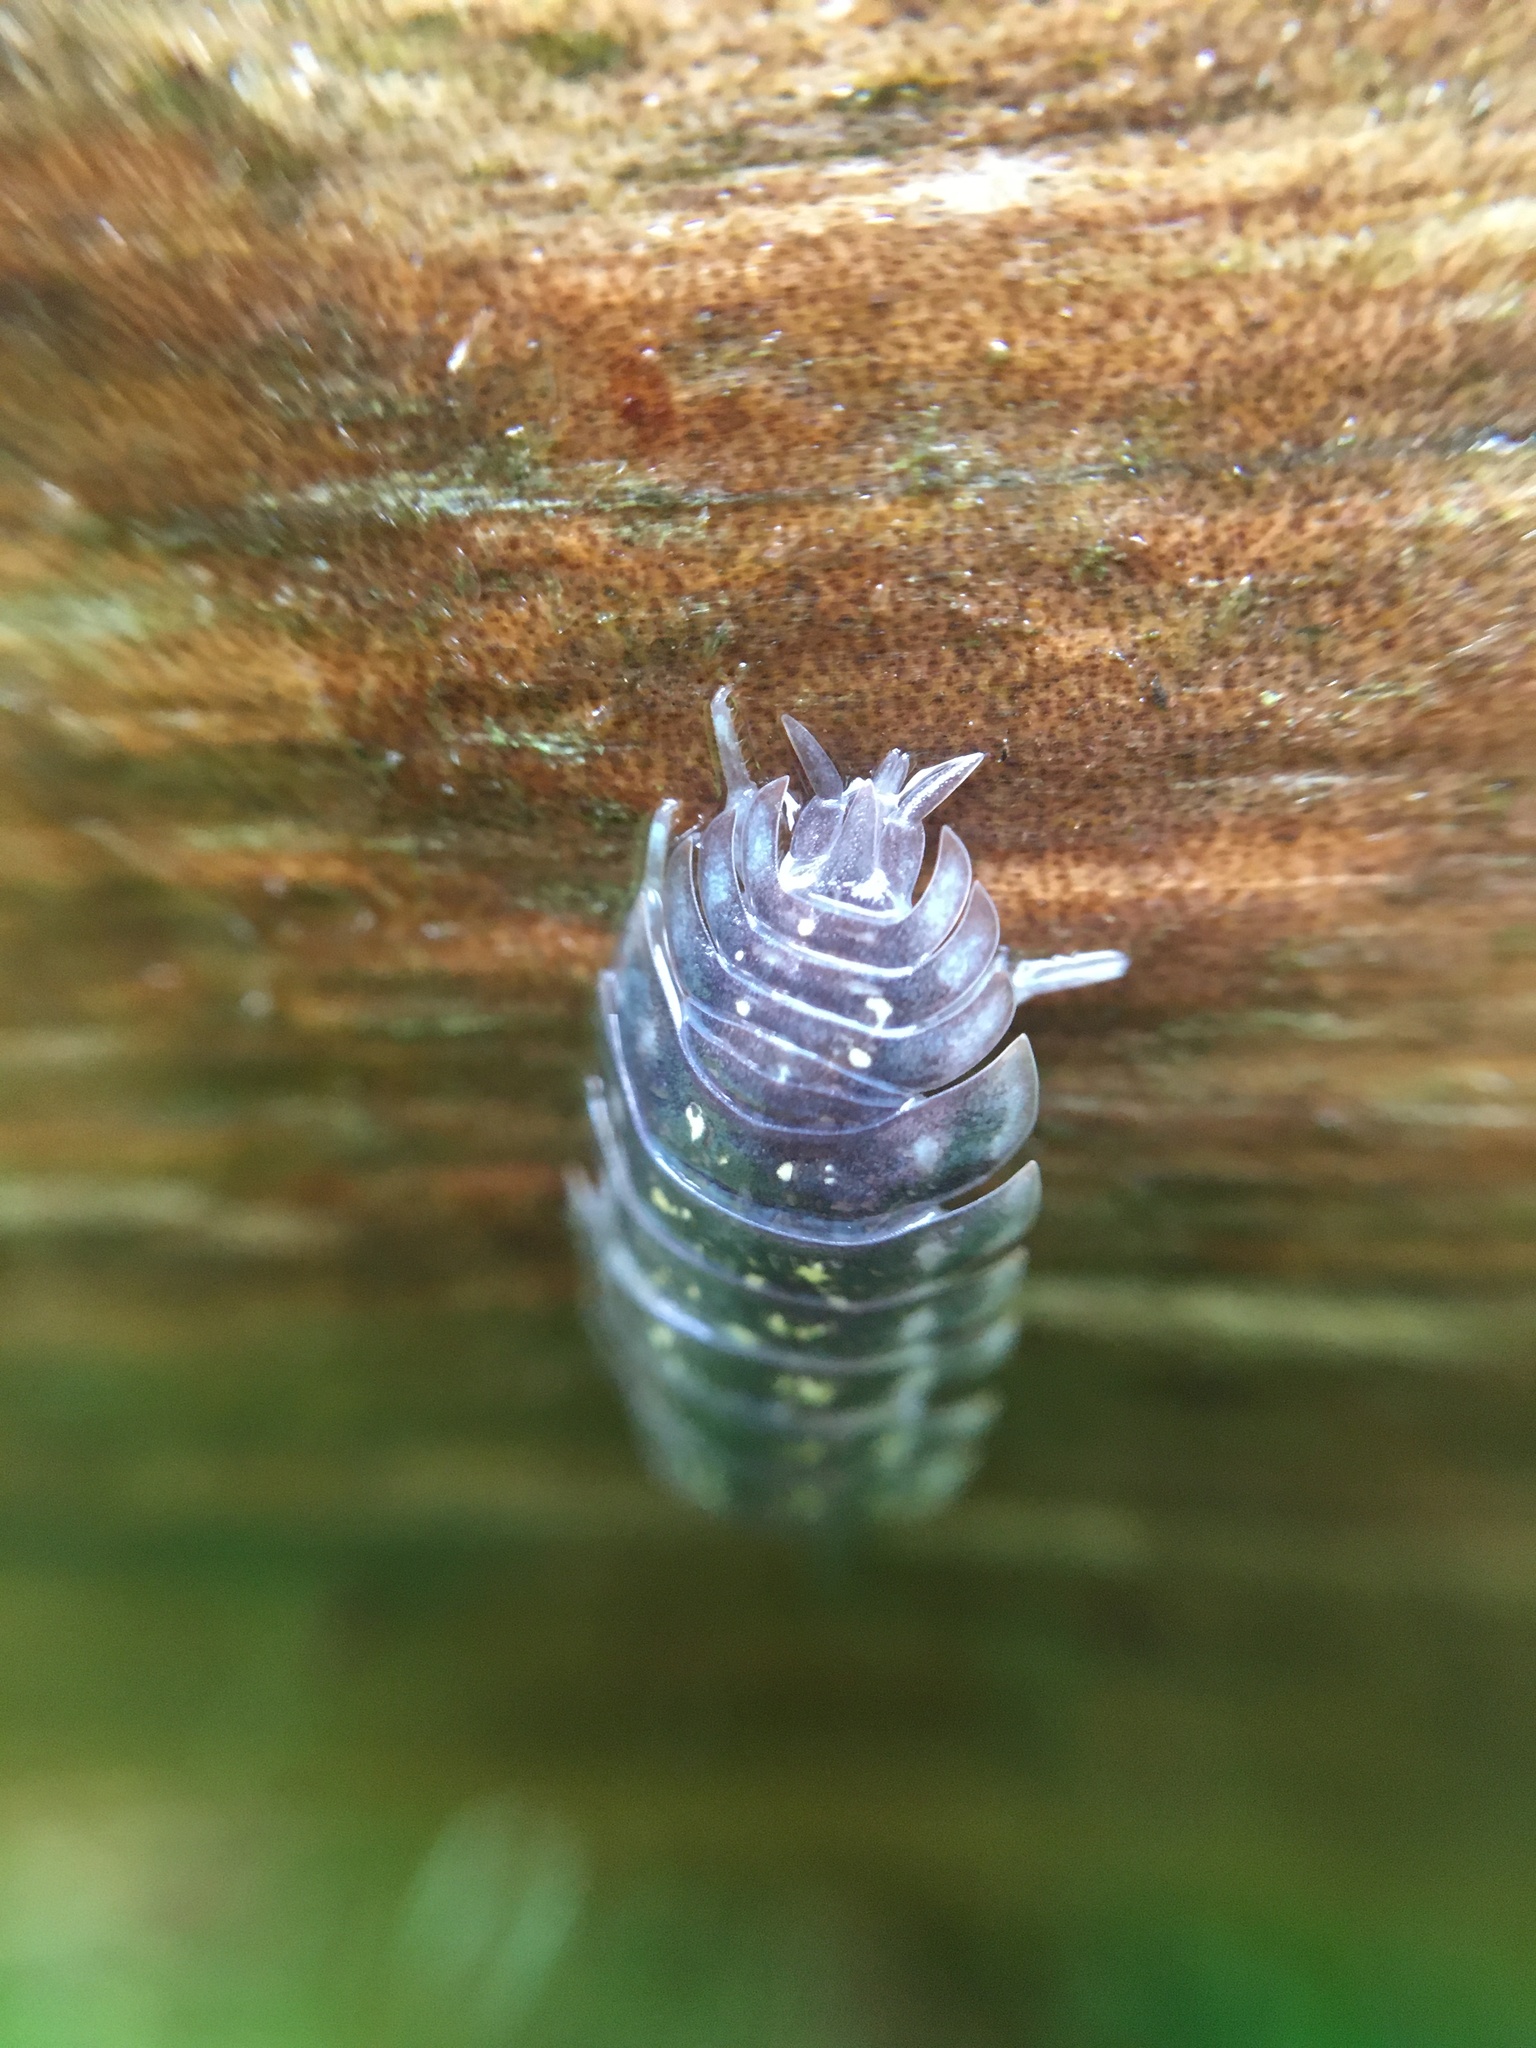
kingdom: Animalia
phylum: Arthropoda
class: Malacostraca
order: Isopoda
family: Oniscidae
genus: Oniscus
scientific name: Oniscus asellus
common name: Common shiny woodlouse
